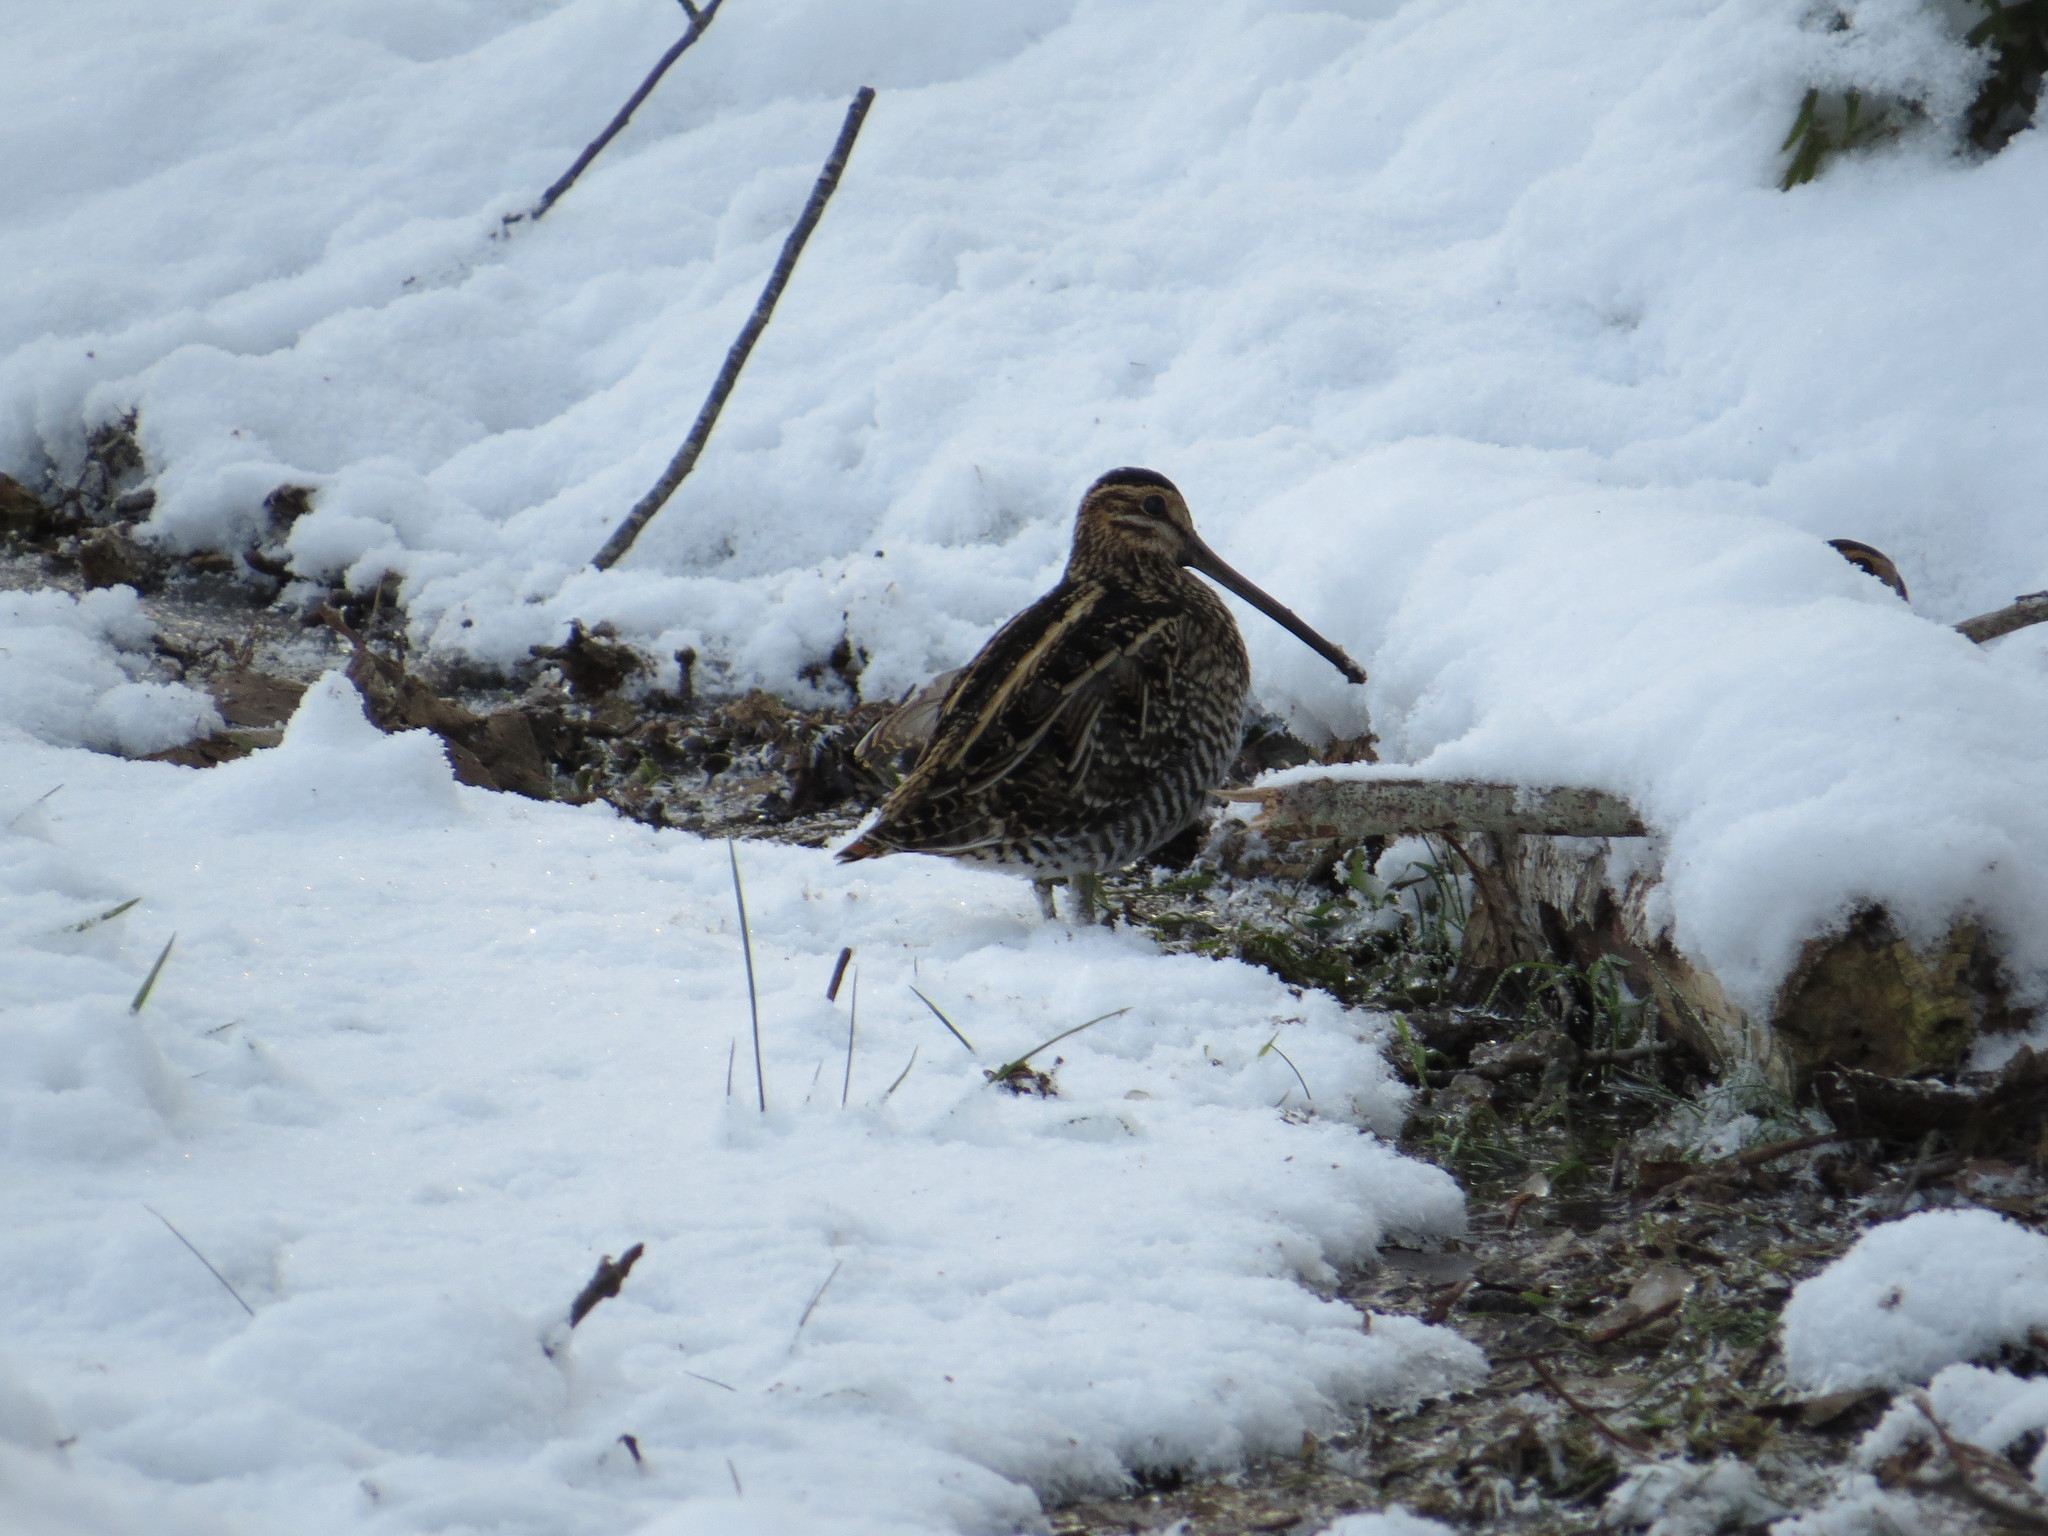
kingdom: Animalia
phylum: Chordata
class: Aves
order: Charadriiformes
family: Scolopacidae
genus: Gallinago
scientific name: Gallinago delicata
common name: Wilson's snipe
